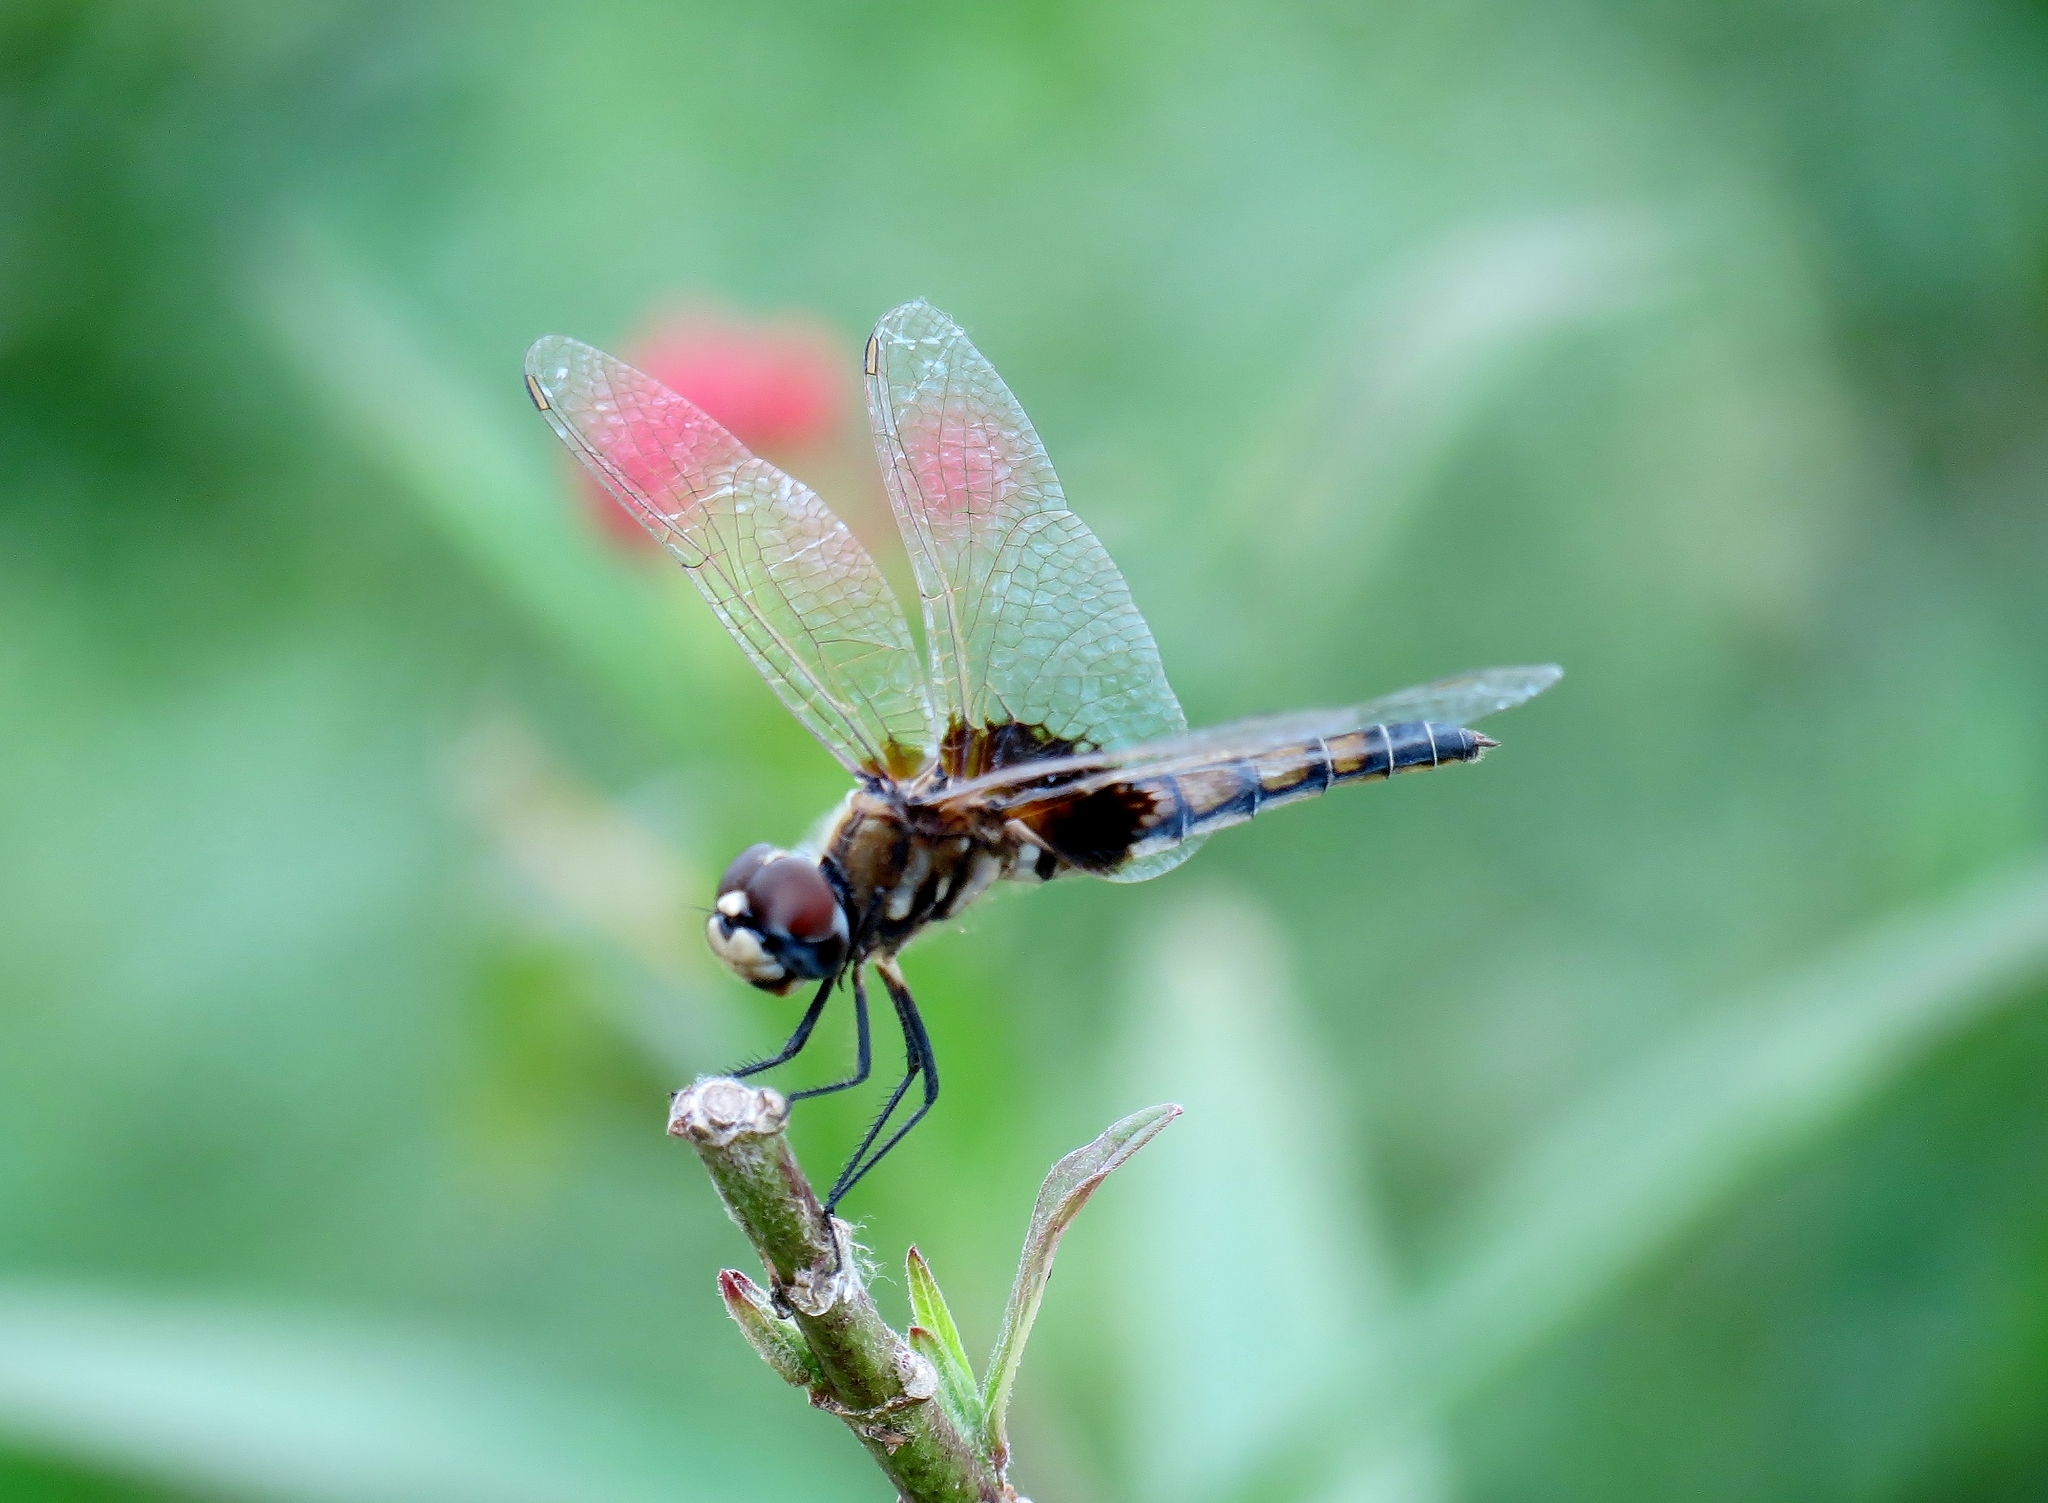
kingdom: Animalia
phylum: Arthropoda
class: Insecta
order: Odonata
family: Libellulidae
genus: Macrodiplax
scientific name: Macrodiplax balteata
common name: Marl pennant
